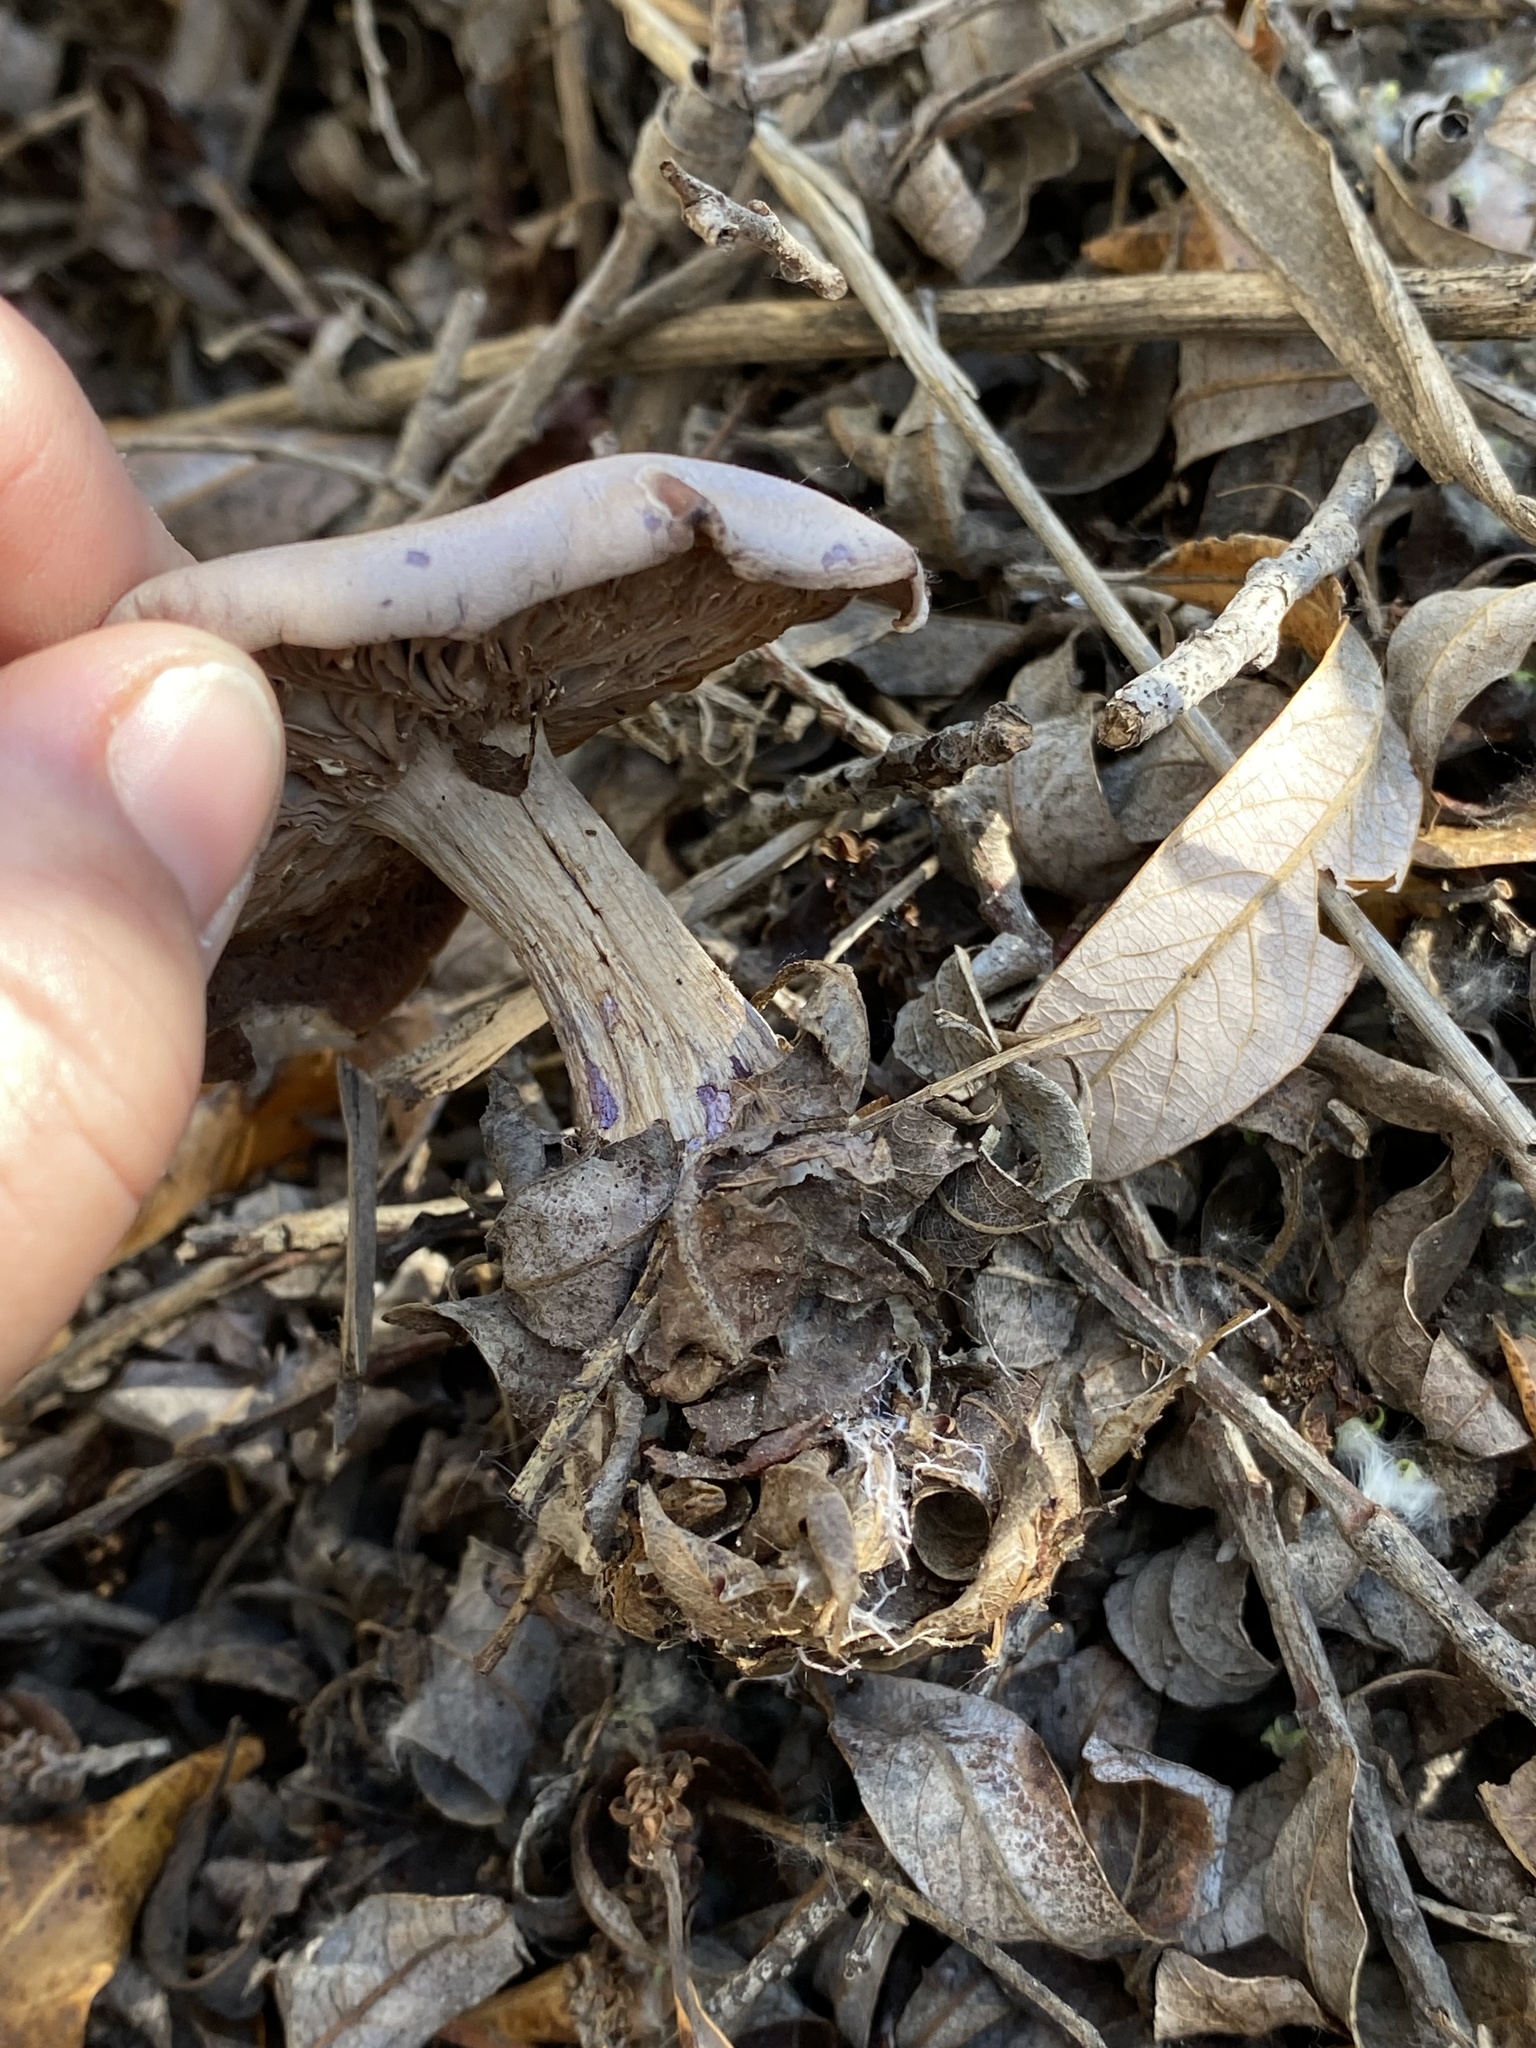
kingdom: Fungi
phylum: Basidiomycota
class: Agaricomycetes
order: Agaricales
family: Tricholomataceae
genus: Collybia
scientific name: Collybia
